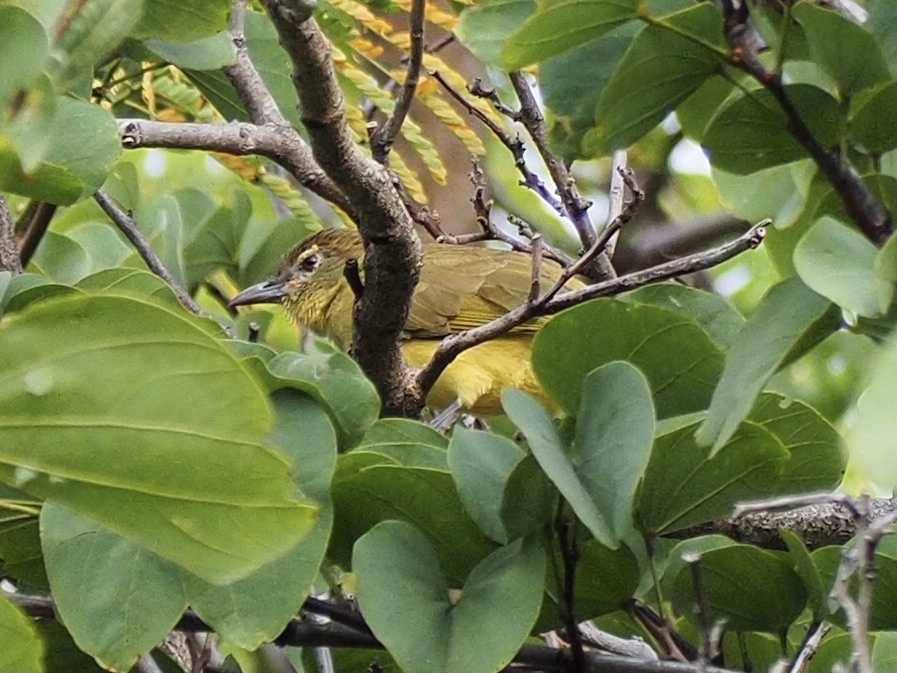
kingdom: Animalia
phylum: Chordata
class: Aves
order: Passeriformes
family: Pycnonotidae
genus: Chlorocichla
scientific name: Chlorocichla flaviventris
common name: Yellow-bellied greenbul
